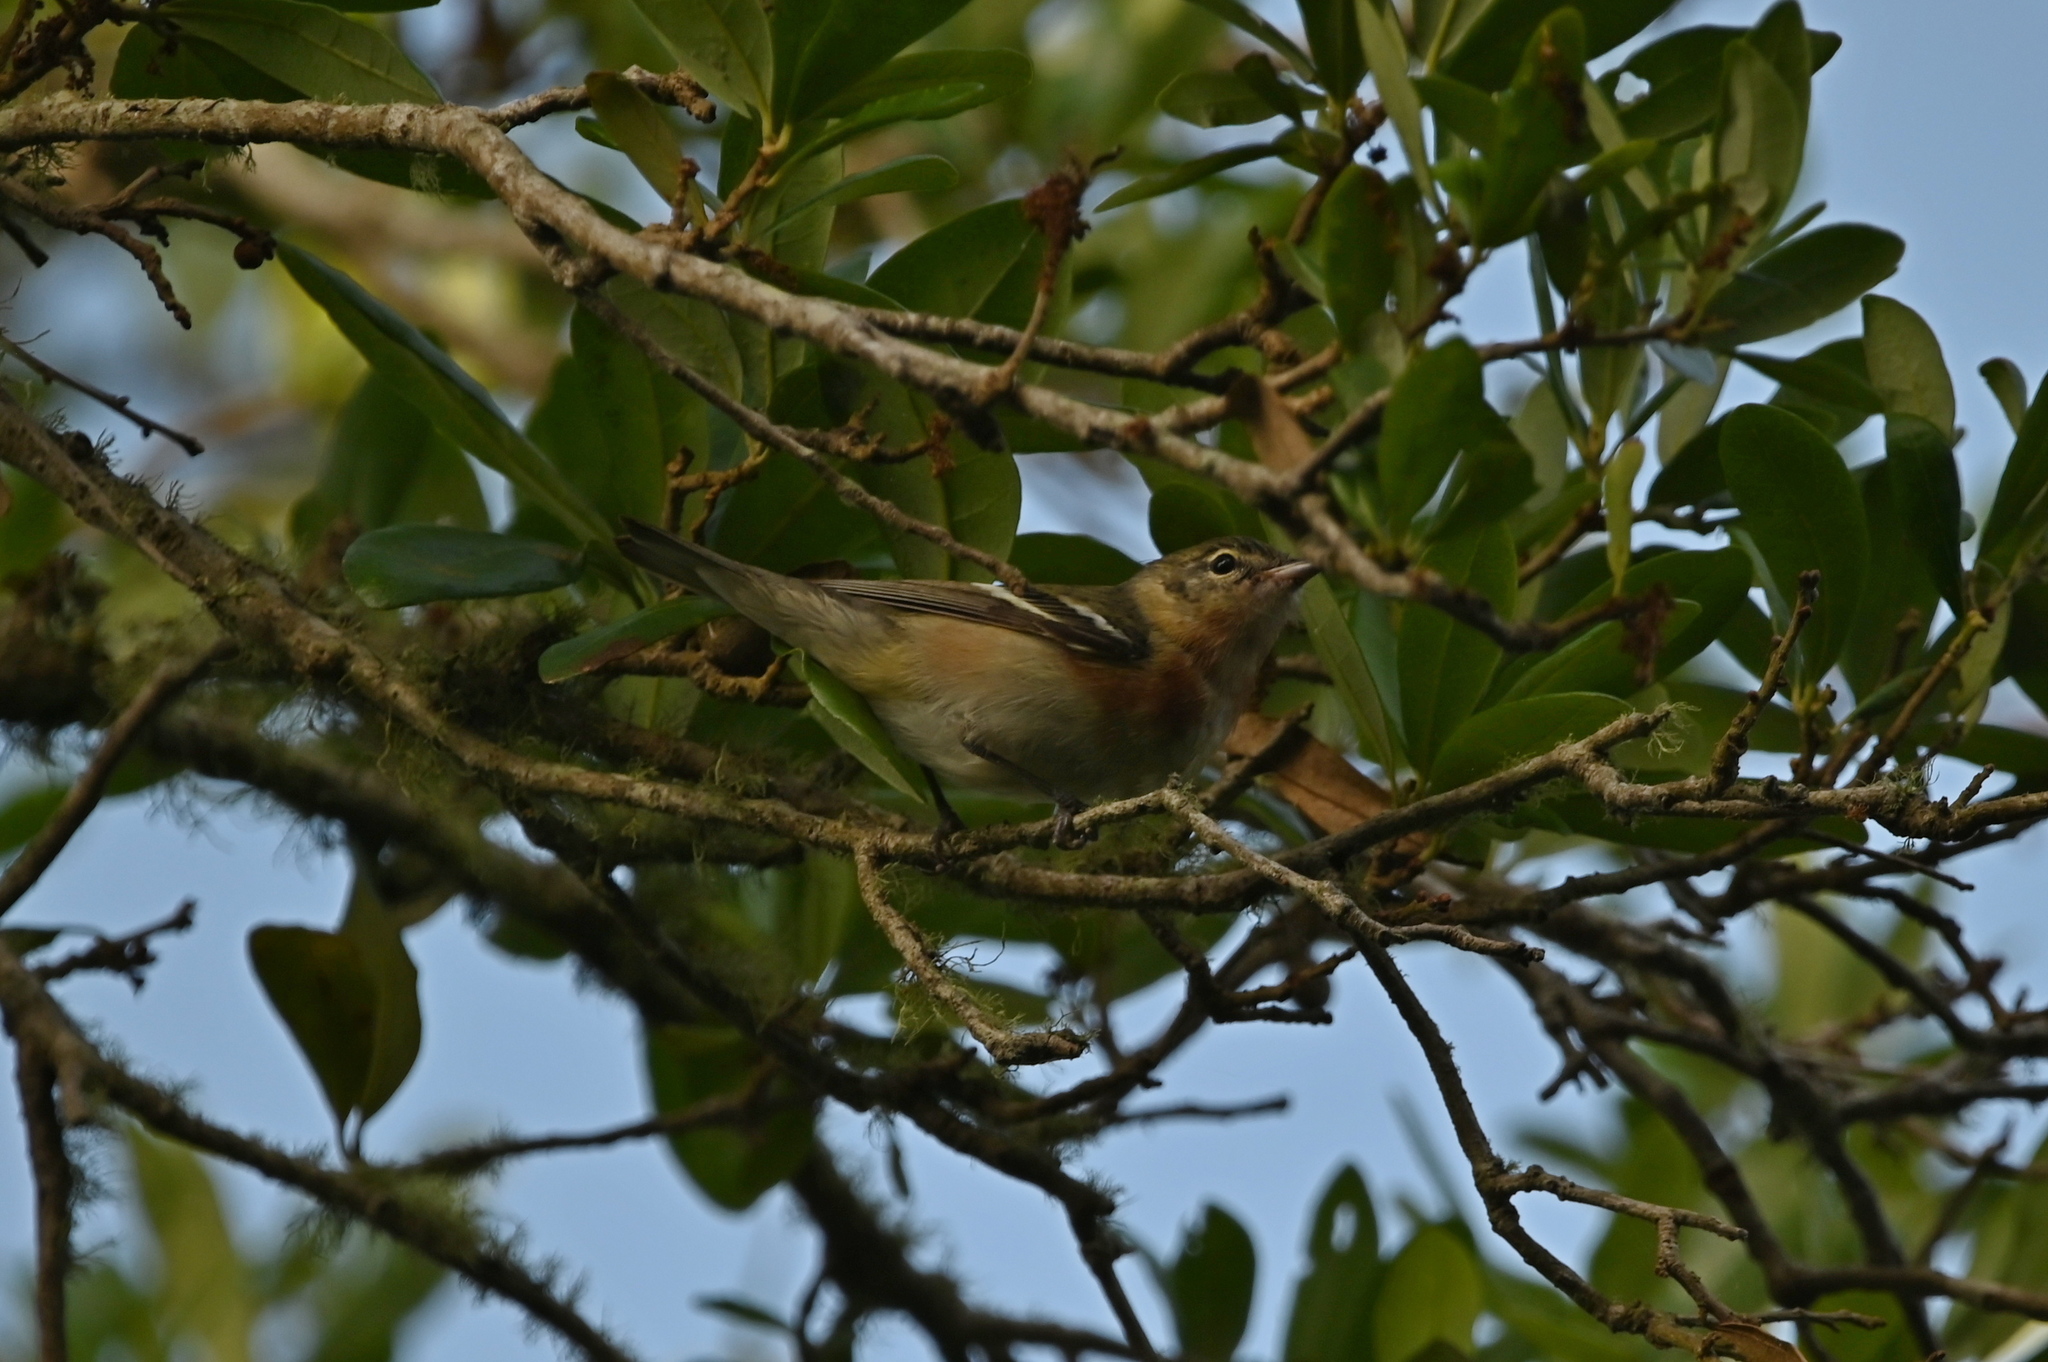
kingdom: Animalia
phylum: Chordata
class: Aves
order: Passeriformes
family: Parulidae
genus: Setophaga
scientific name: Setophaga castanea
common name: Bay-breasted warbler
